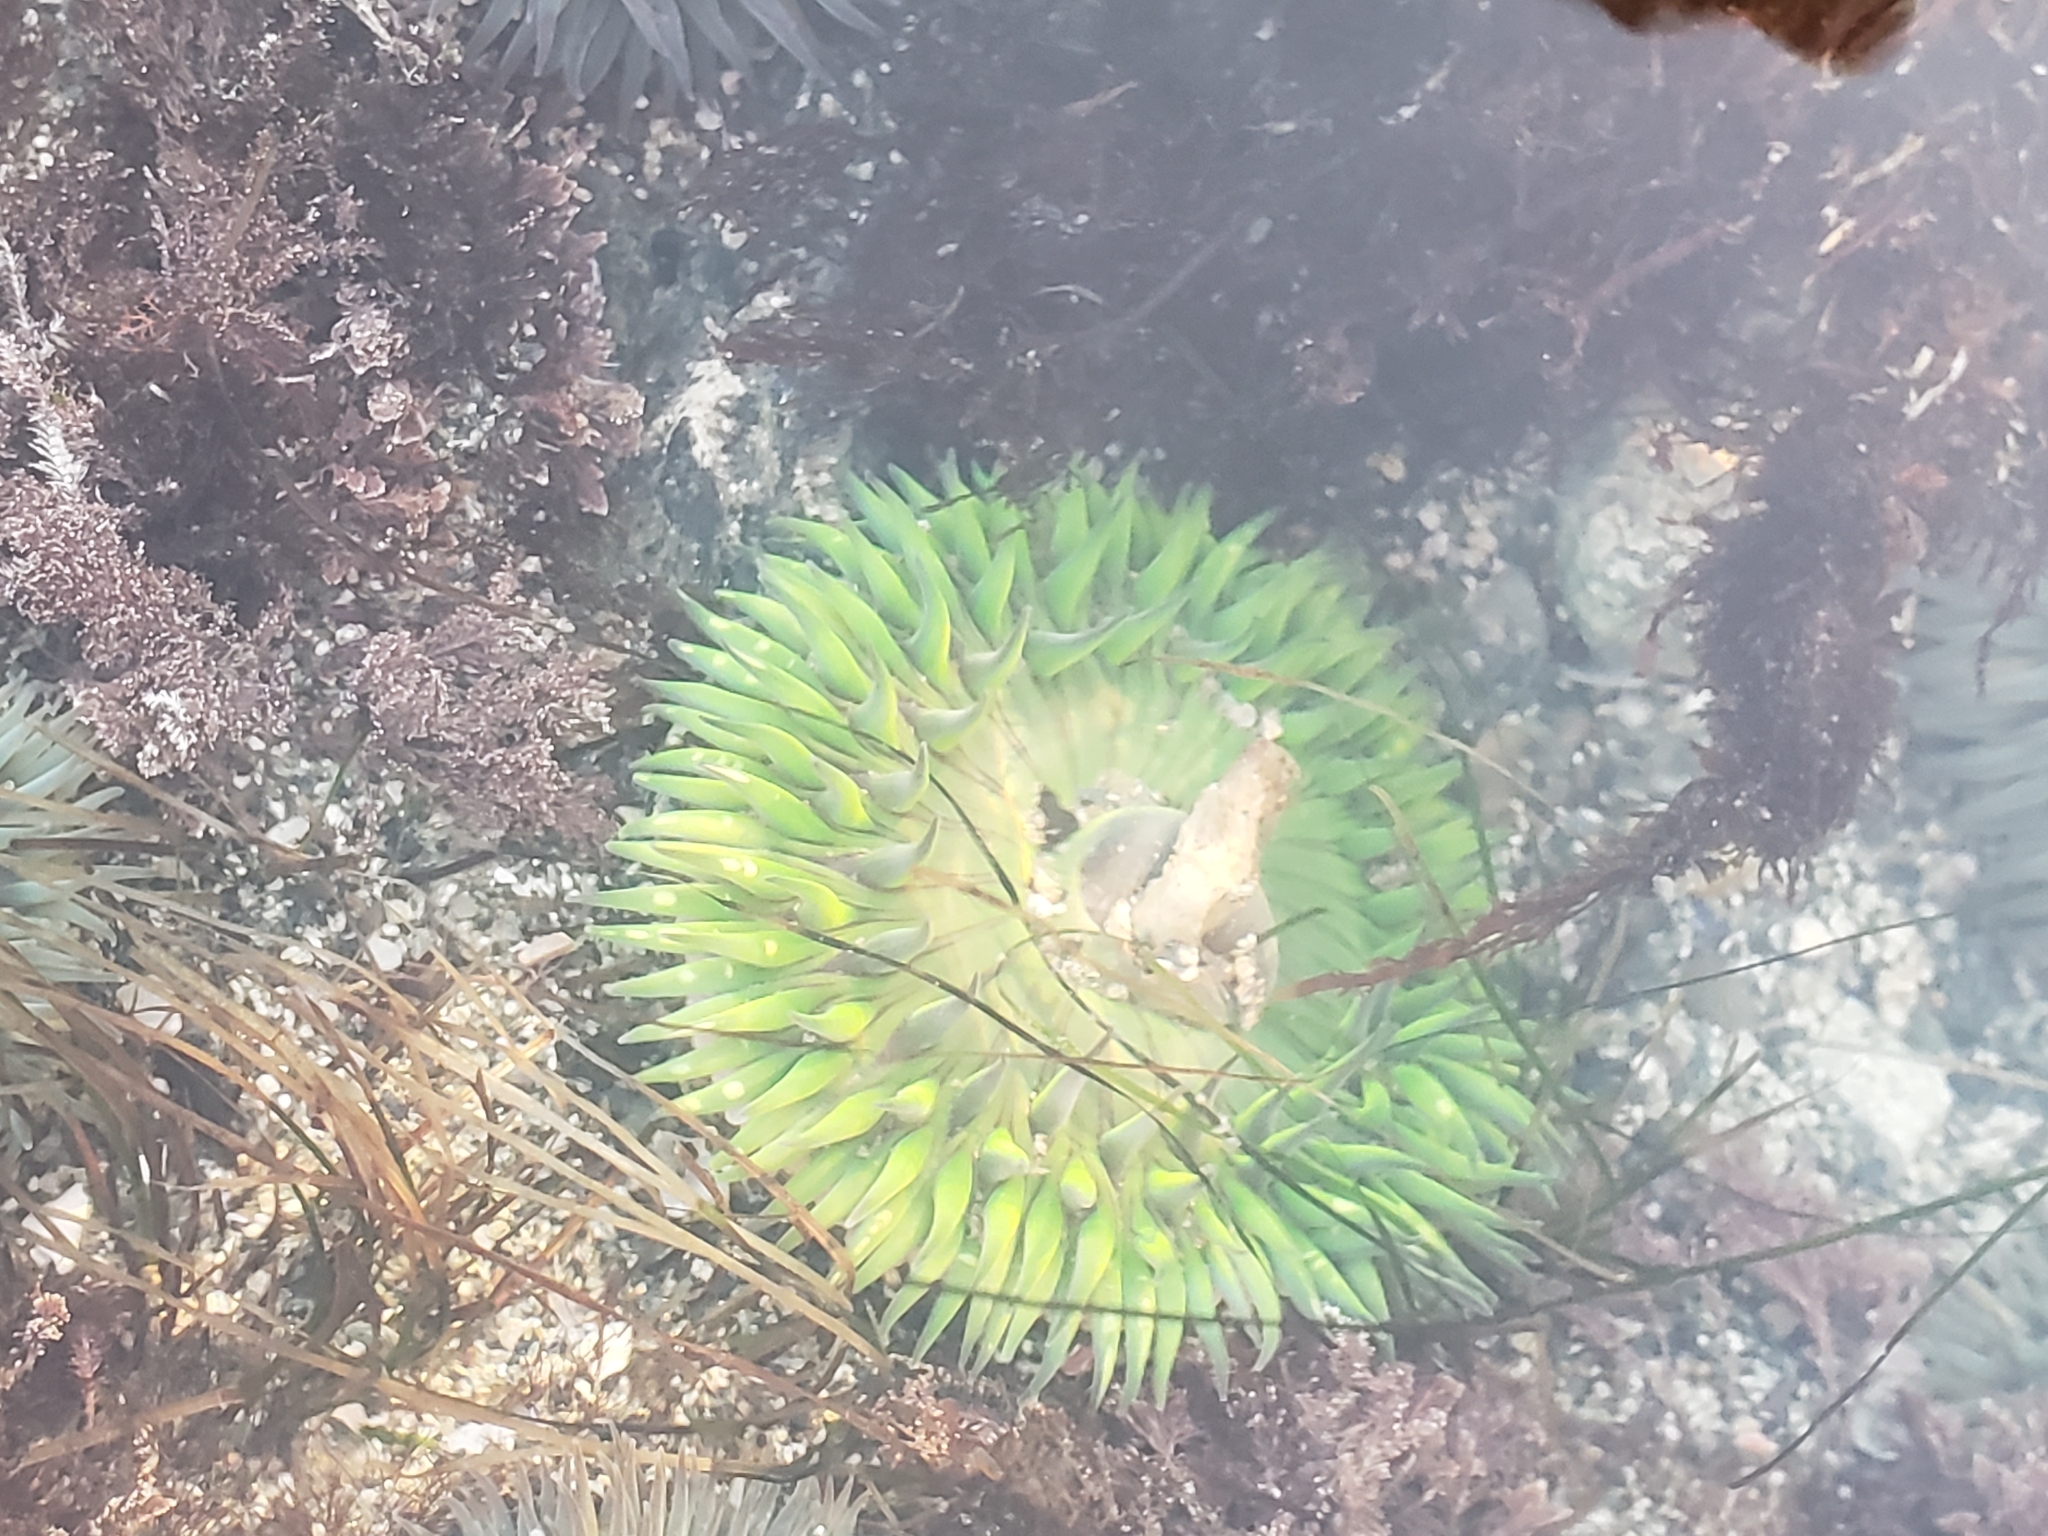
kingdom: Animalia
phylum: Cnidaria
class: Anthozoa
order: Actiniaria
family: Actiniidae
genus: Anthopleura
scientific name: Anthopleura sola
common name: Sun anemone
